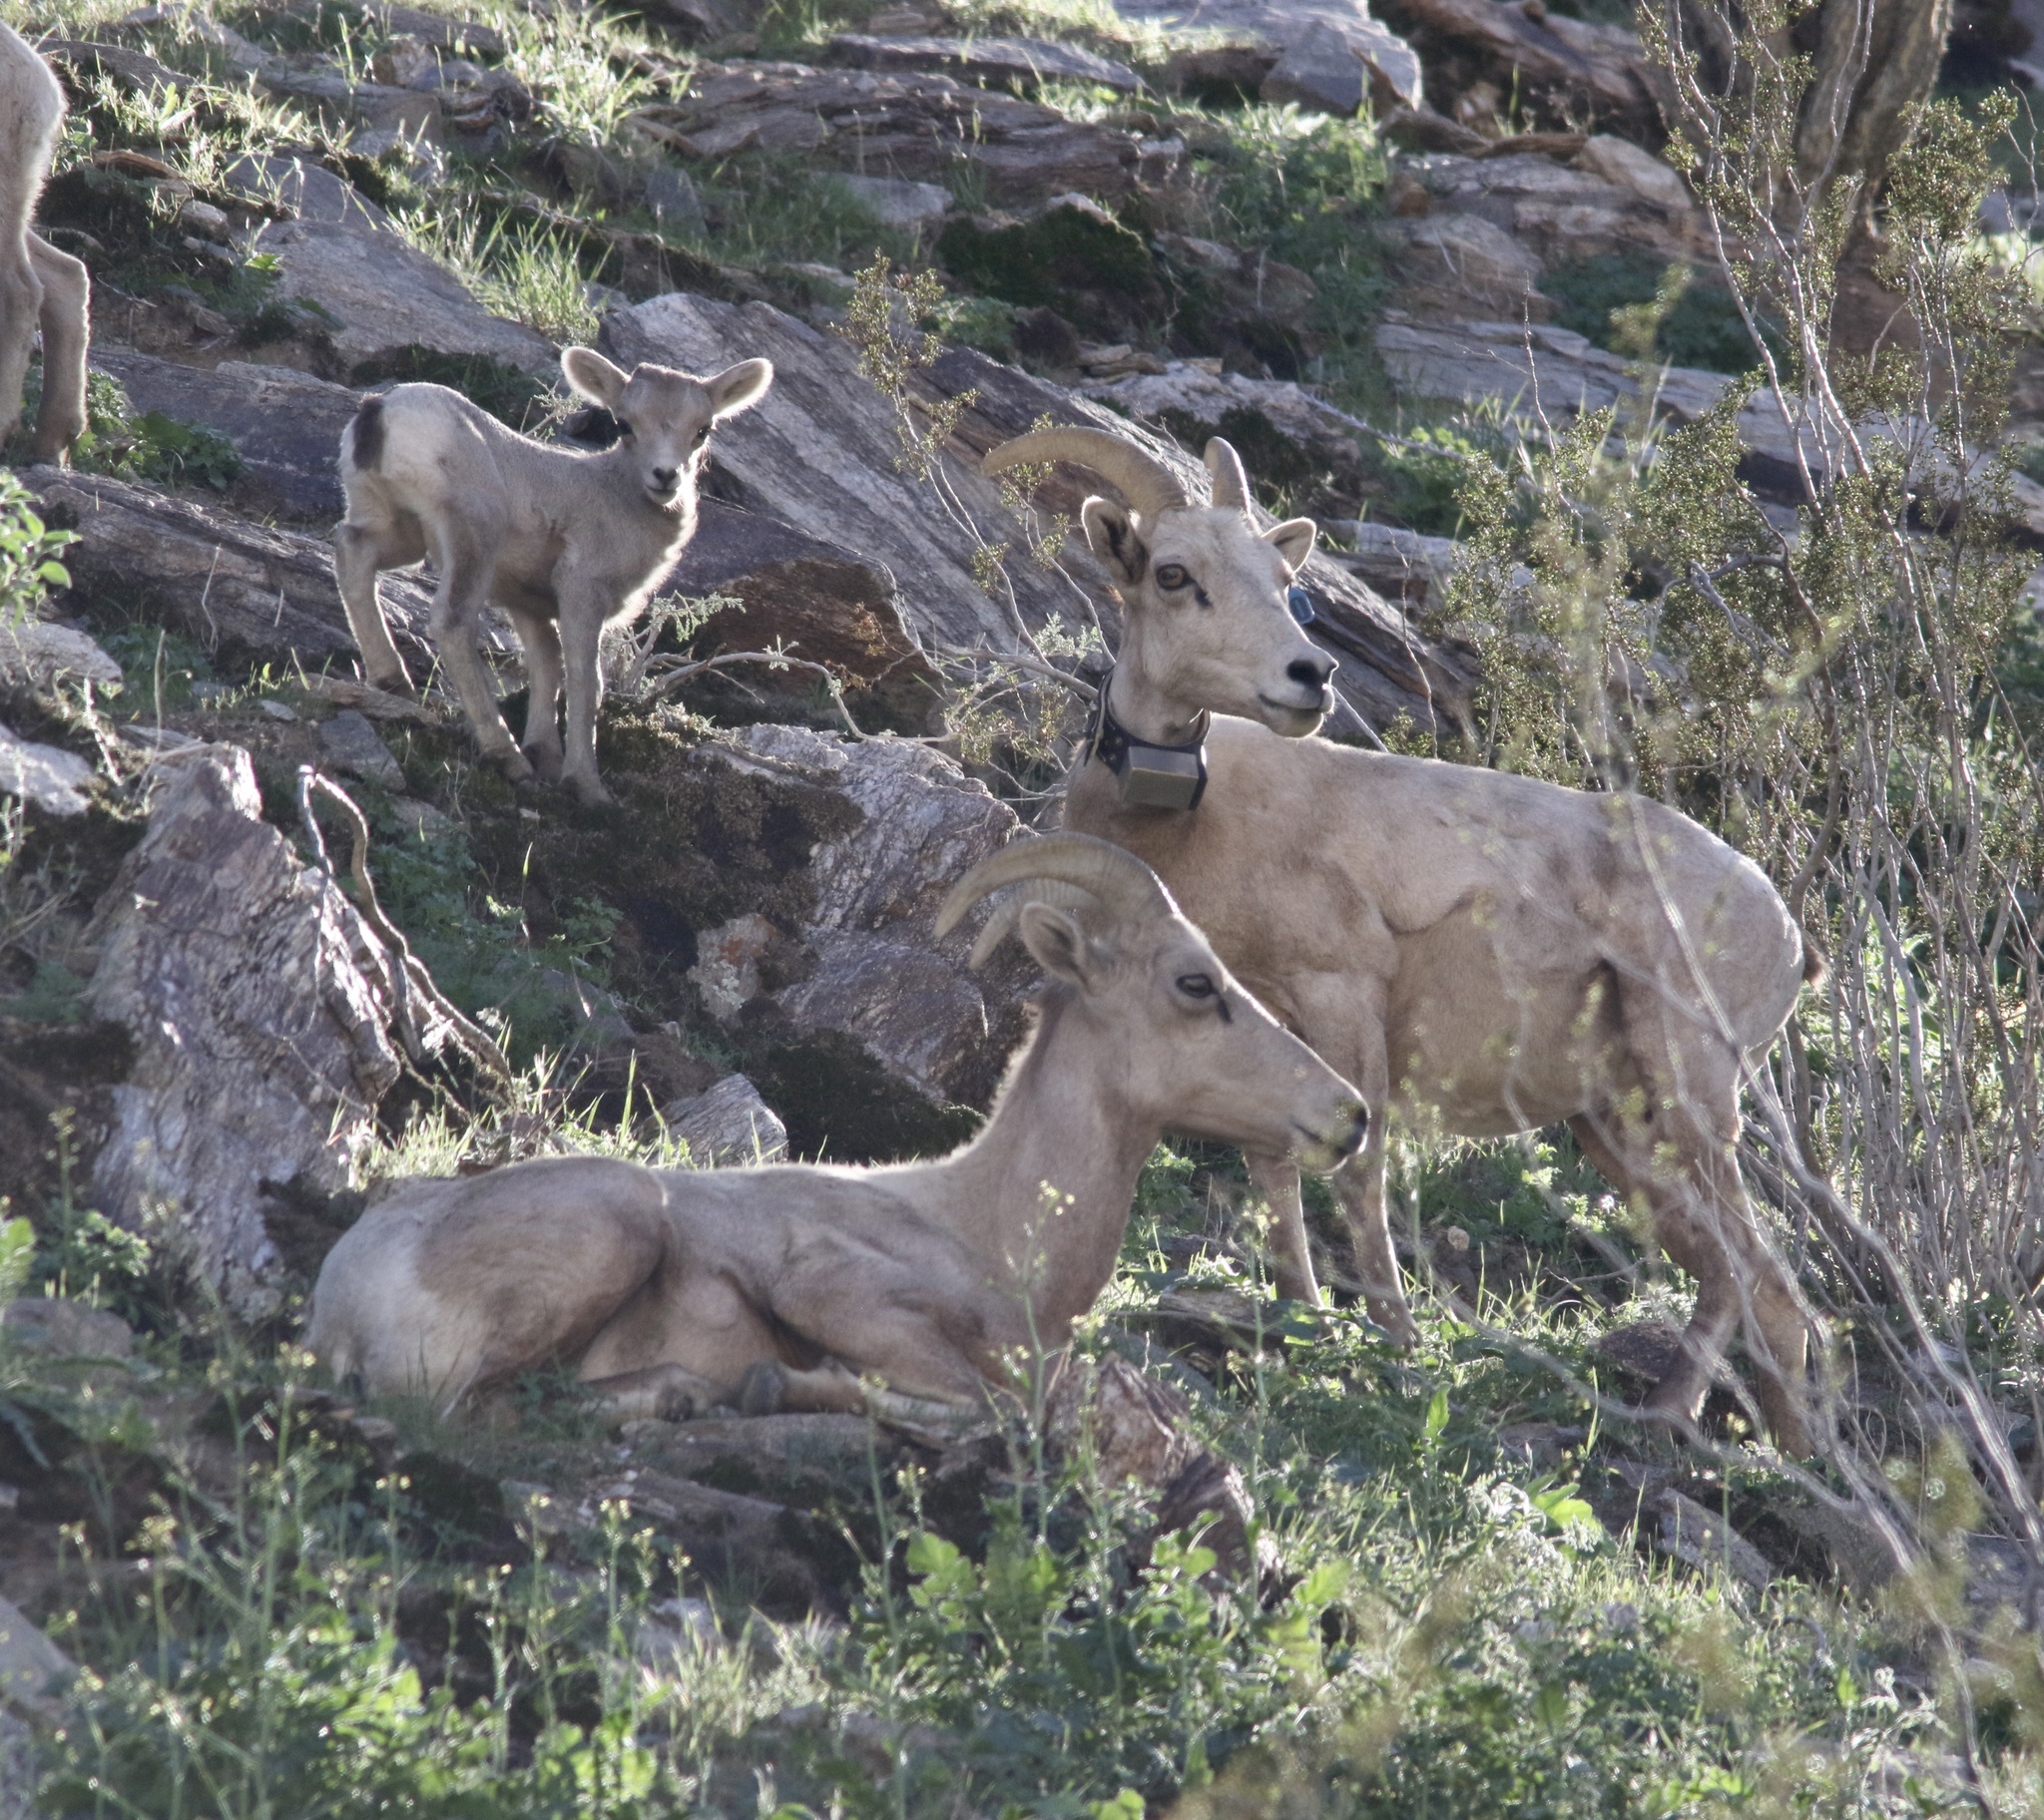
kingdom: Animalia
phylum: Chordata
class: Mammalia
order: Artiodactyla
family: Bovidae
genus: Ovis
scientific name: Ovis canadensis
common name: Bighorn sheep
